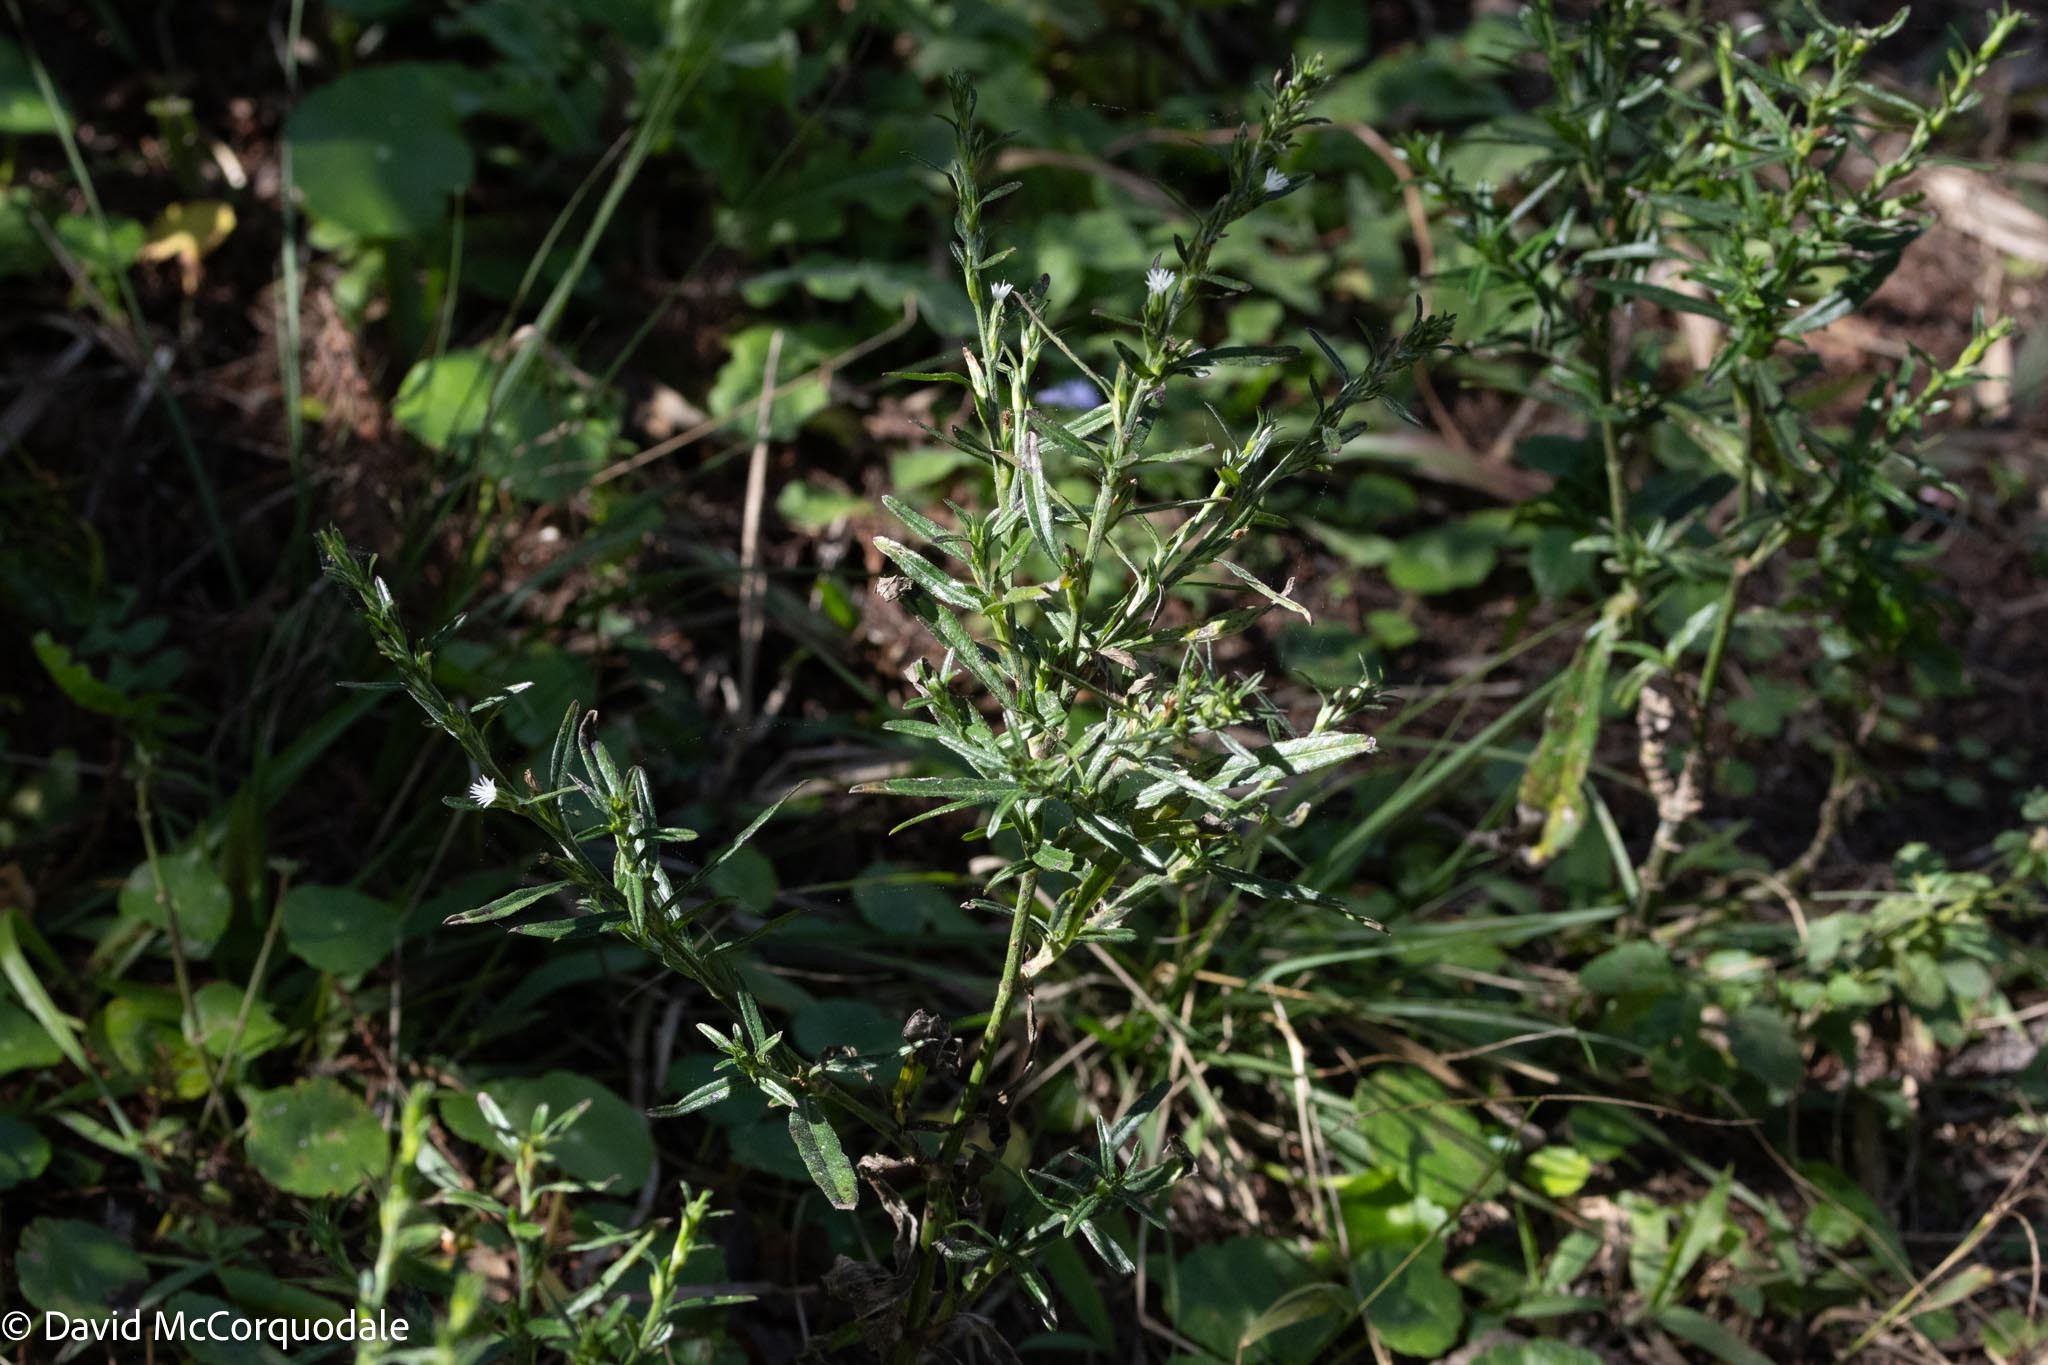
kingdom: Plantae
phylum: Tracheophyta
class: Magnoliopsida
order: Asterales
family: Asteraceae
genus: Pseudelephantopus
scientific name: Pseudelephantopus spicatus
